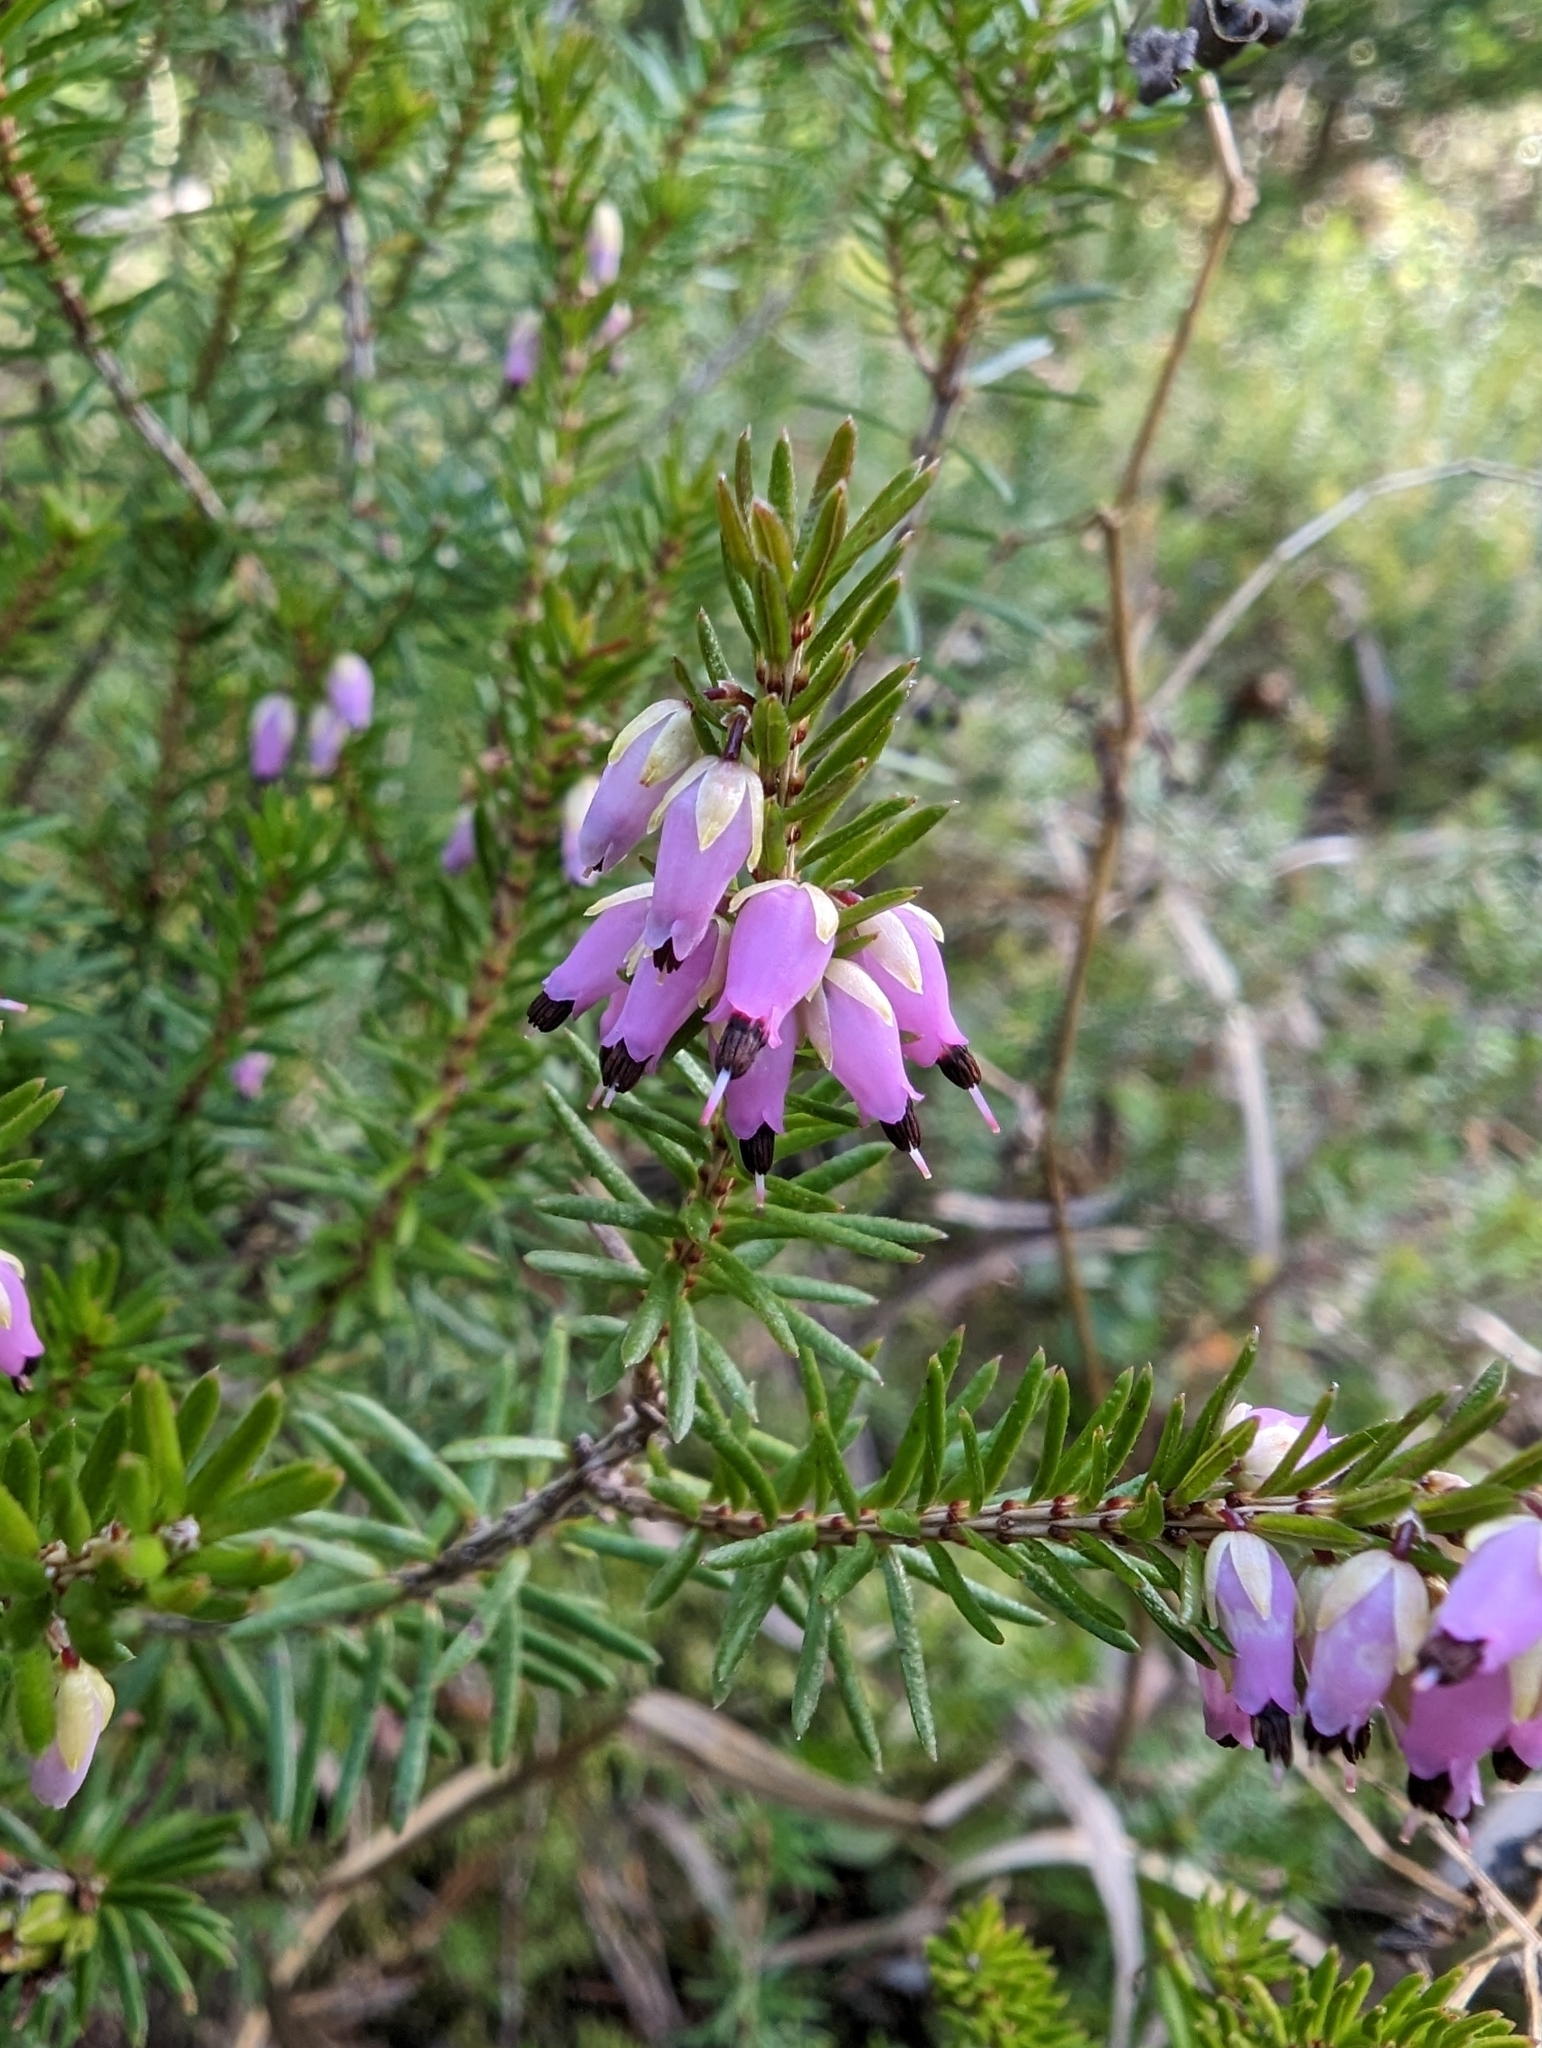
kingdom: Plantae
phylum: Tracheophyta
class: Magnoliopsida
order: Ericales
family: Ericaceae
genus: Erica
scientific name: Erica carnea
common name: Winter heath
